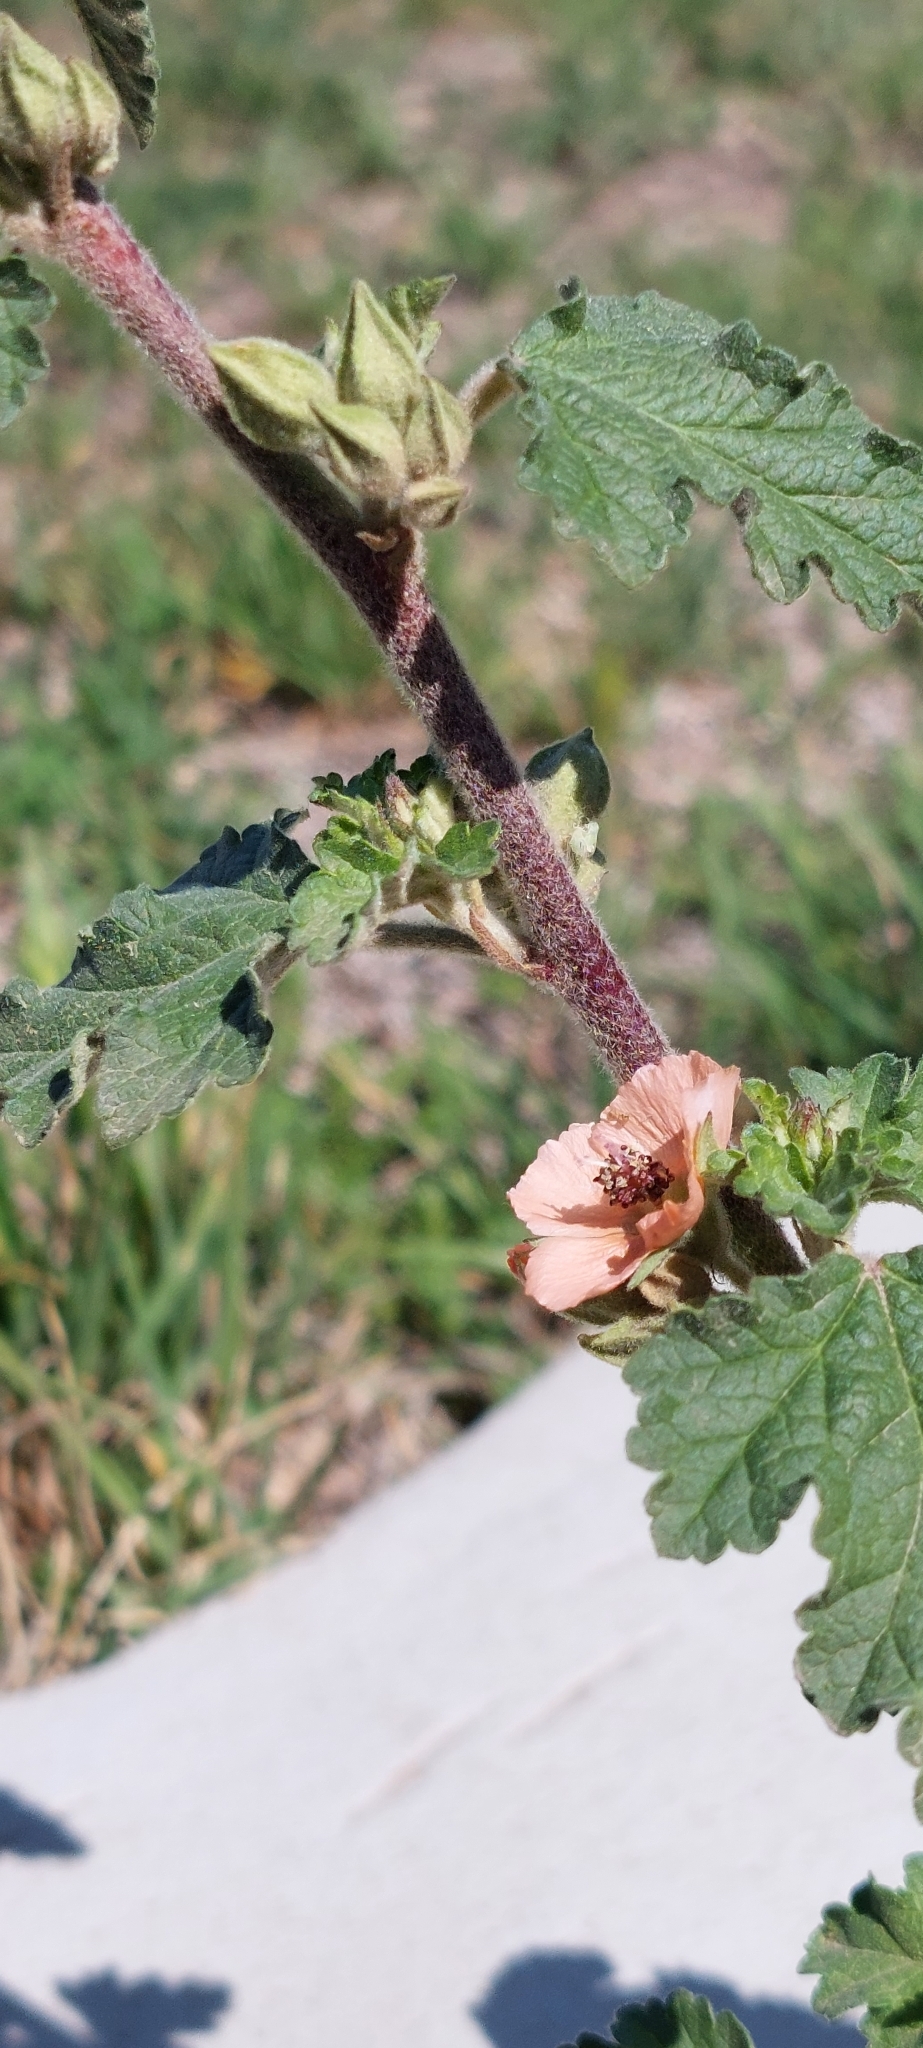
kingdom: Plantae
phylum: Tracheophyta
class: Magnoliopsida
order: Malvales
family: Malvaceae
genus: Sphaeralcea
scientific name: Sphaeralcea bonariensis
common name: Latin globemallow
